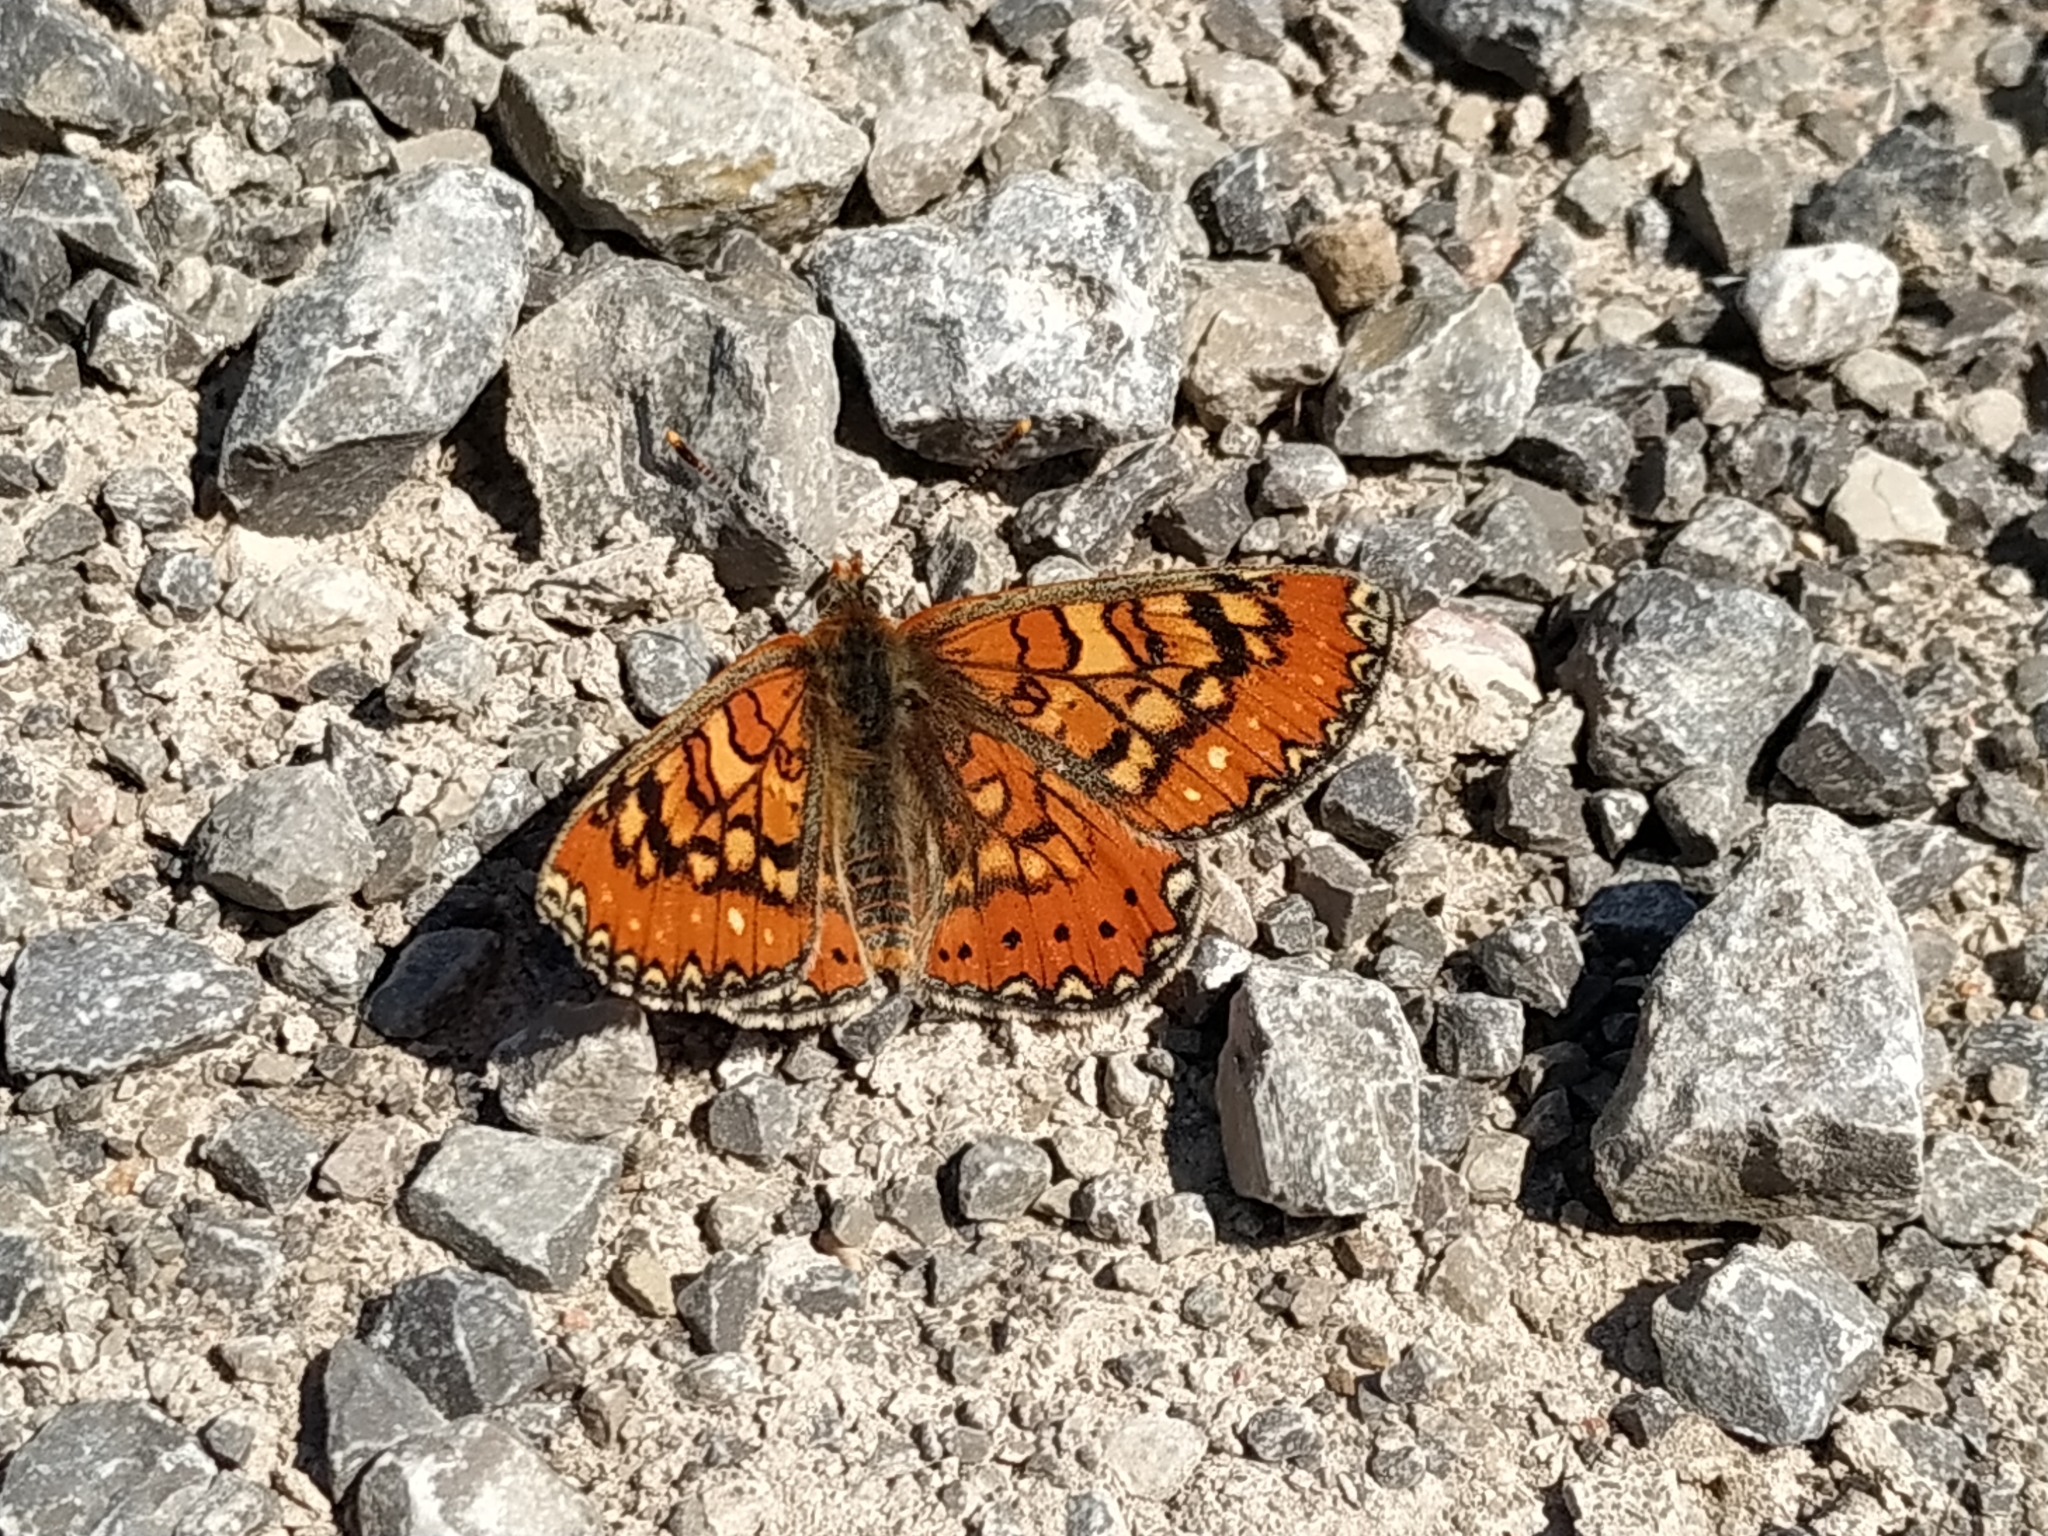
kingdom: Animalia
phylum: Arthropoda
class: Insecta
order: Lepidoptera
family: Nymphalidae
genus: Euphydryas
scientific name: Euphydryas desfontainii
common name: Spanish fritillary
